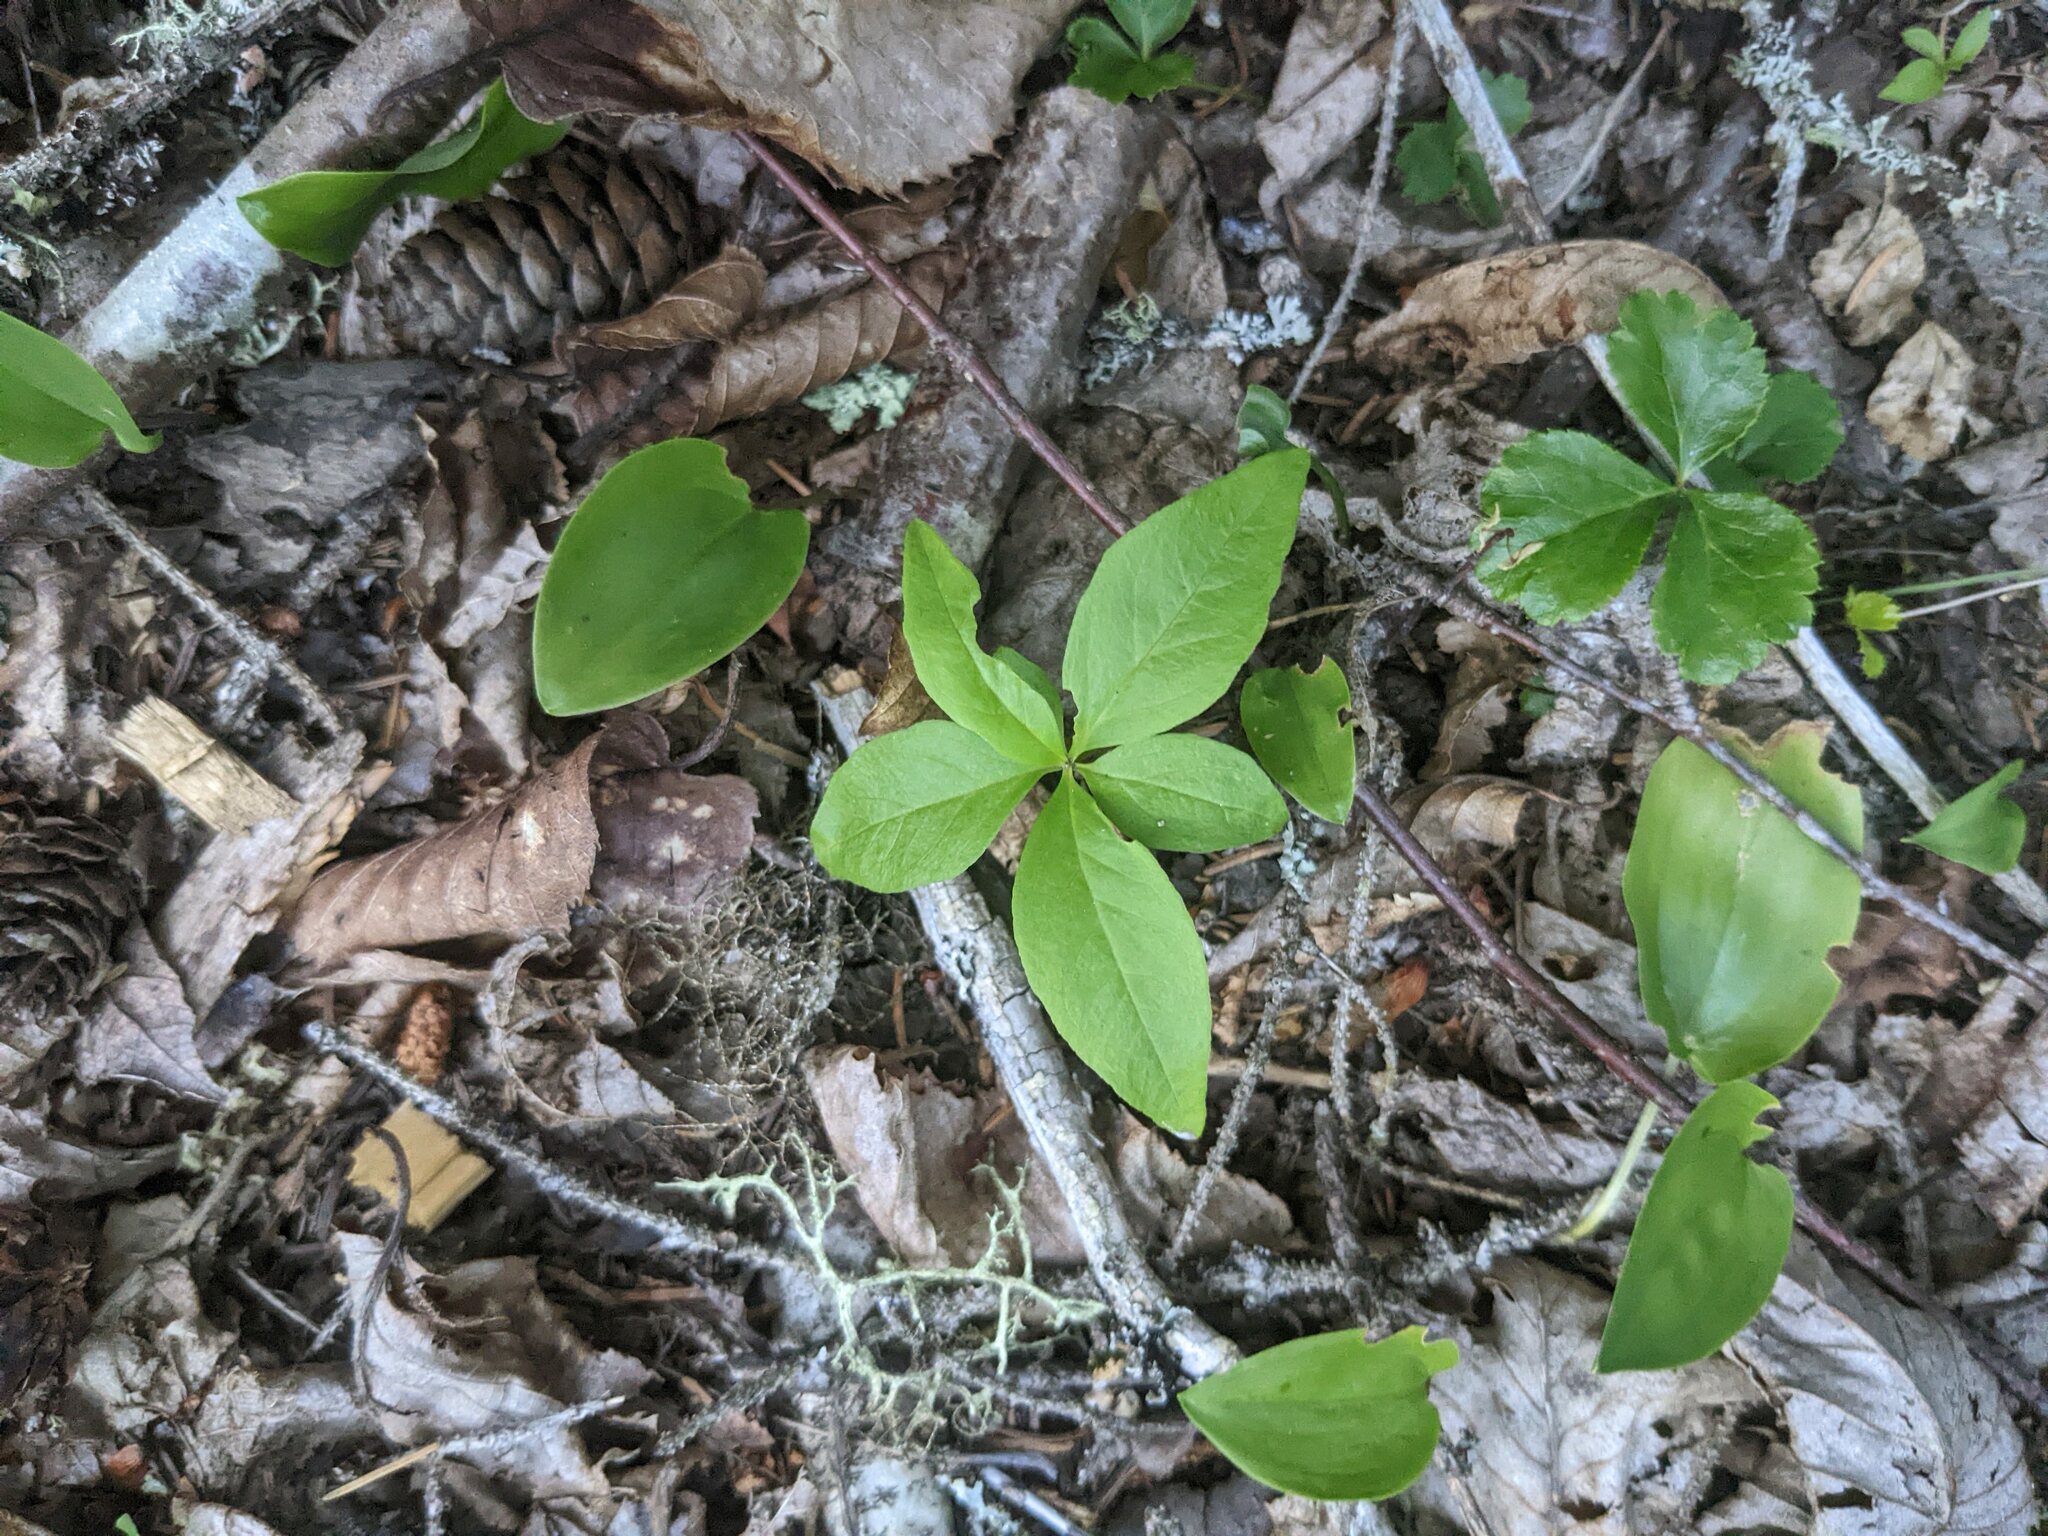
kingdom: Plantae
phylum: Tracheophyta
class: Magnoliopsida
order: Ericales
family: Primulaceae
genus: Lysimachia
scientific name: Lysimachia borealis
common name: American starflower
